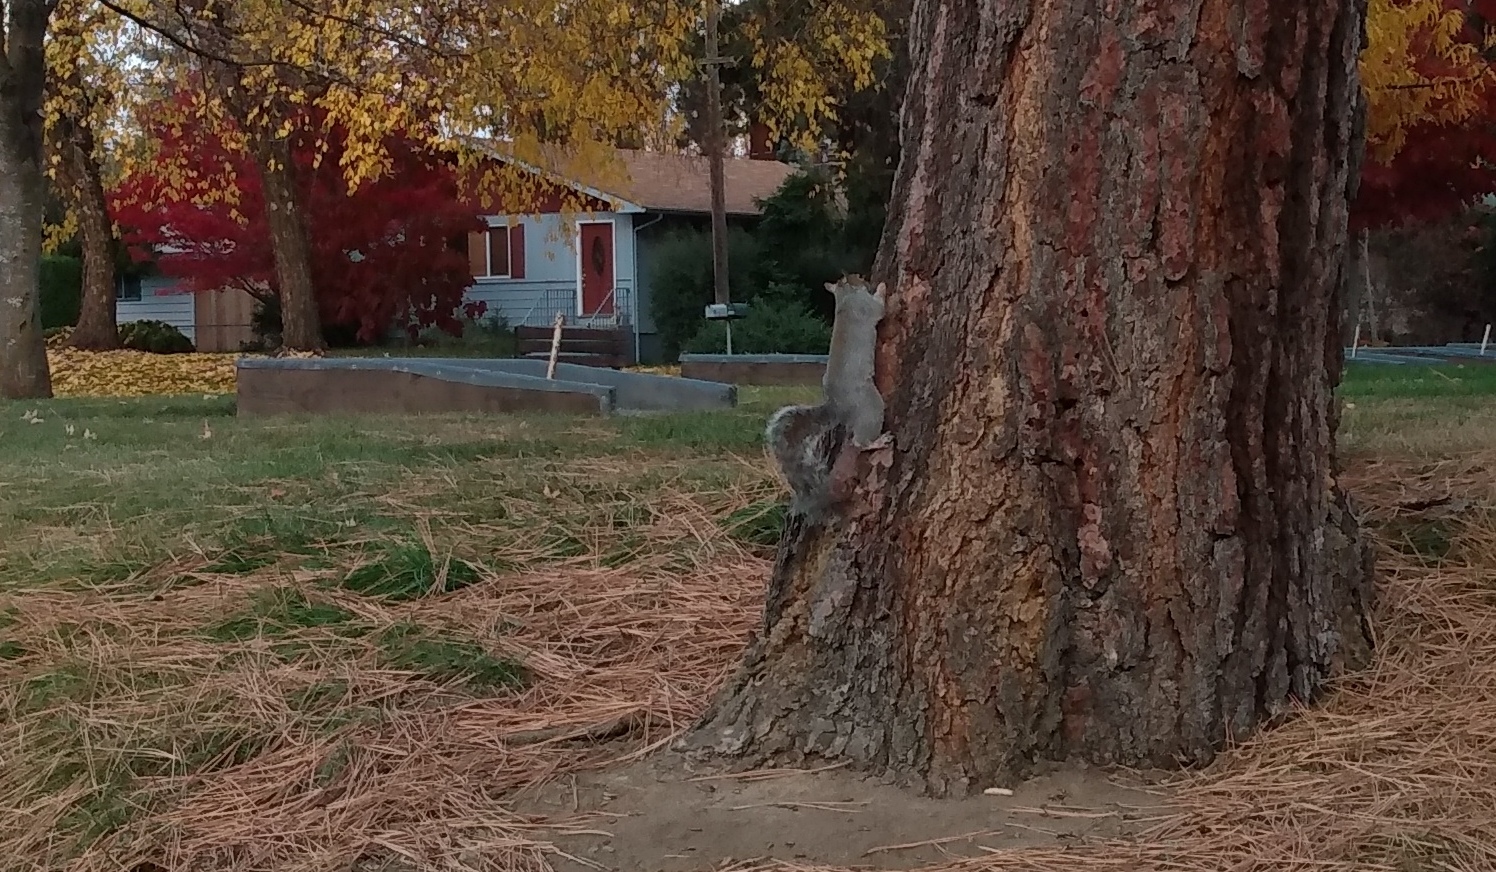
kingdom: Animalia
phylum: Chordata
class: Mammalia
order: Rodentia
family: Sciuridae
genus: Sciurus
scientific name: Sciurus carolinensis
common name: Eastern gray squirrel
